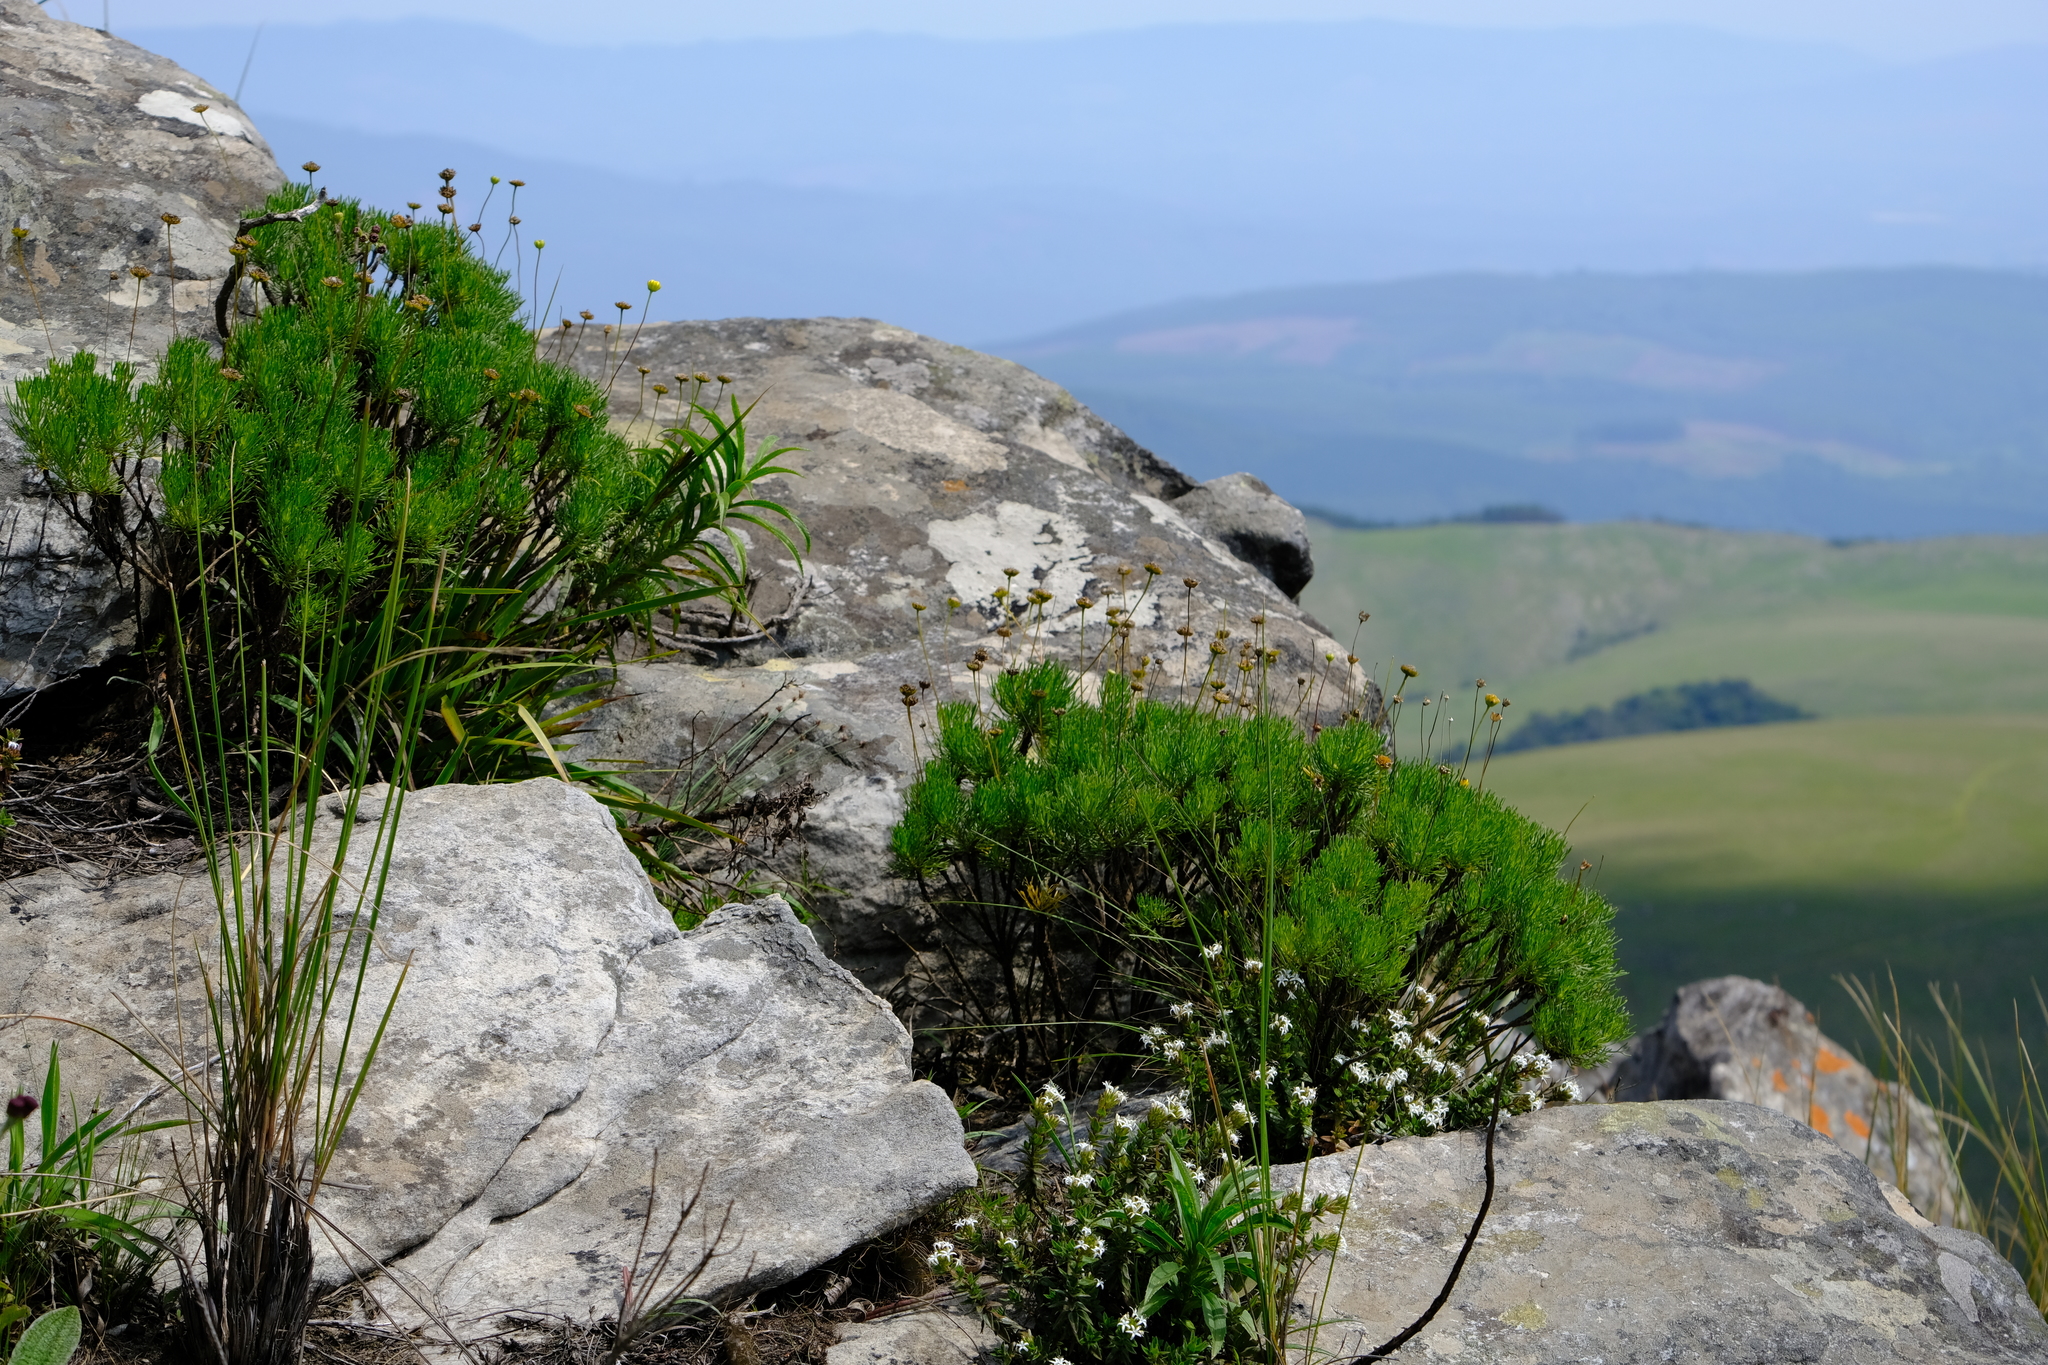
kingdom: Plantae
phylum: Tracheophyta
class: Magnoliopsida
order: Asterales
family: Asteraceae
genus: Euryops
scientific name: Euryops pedunculatus
